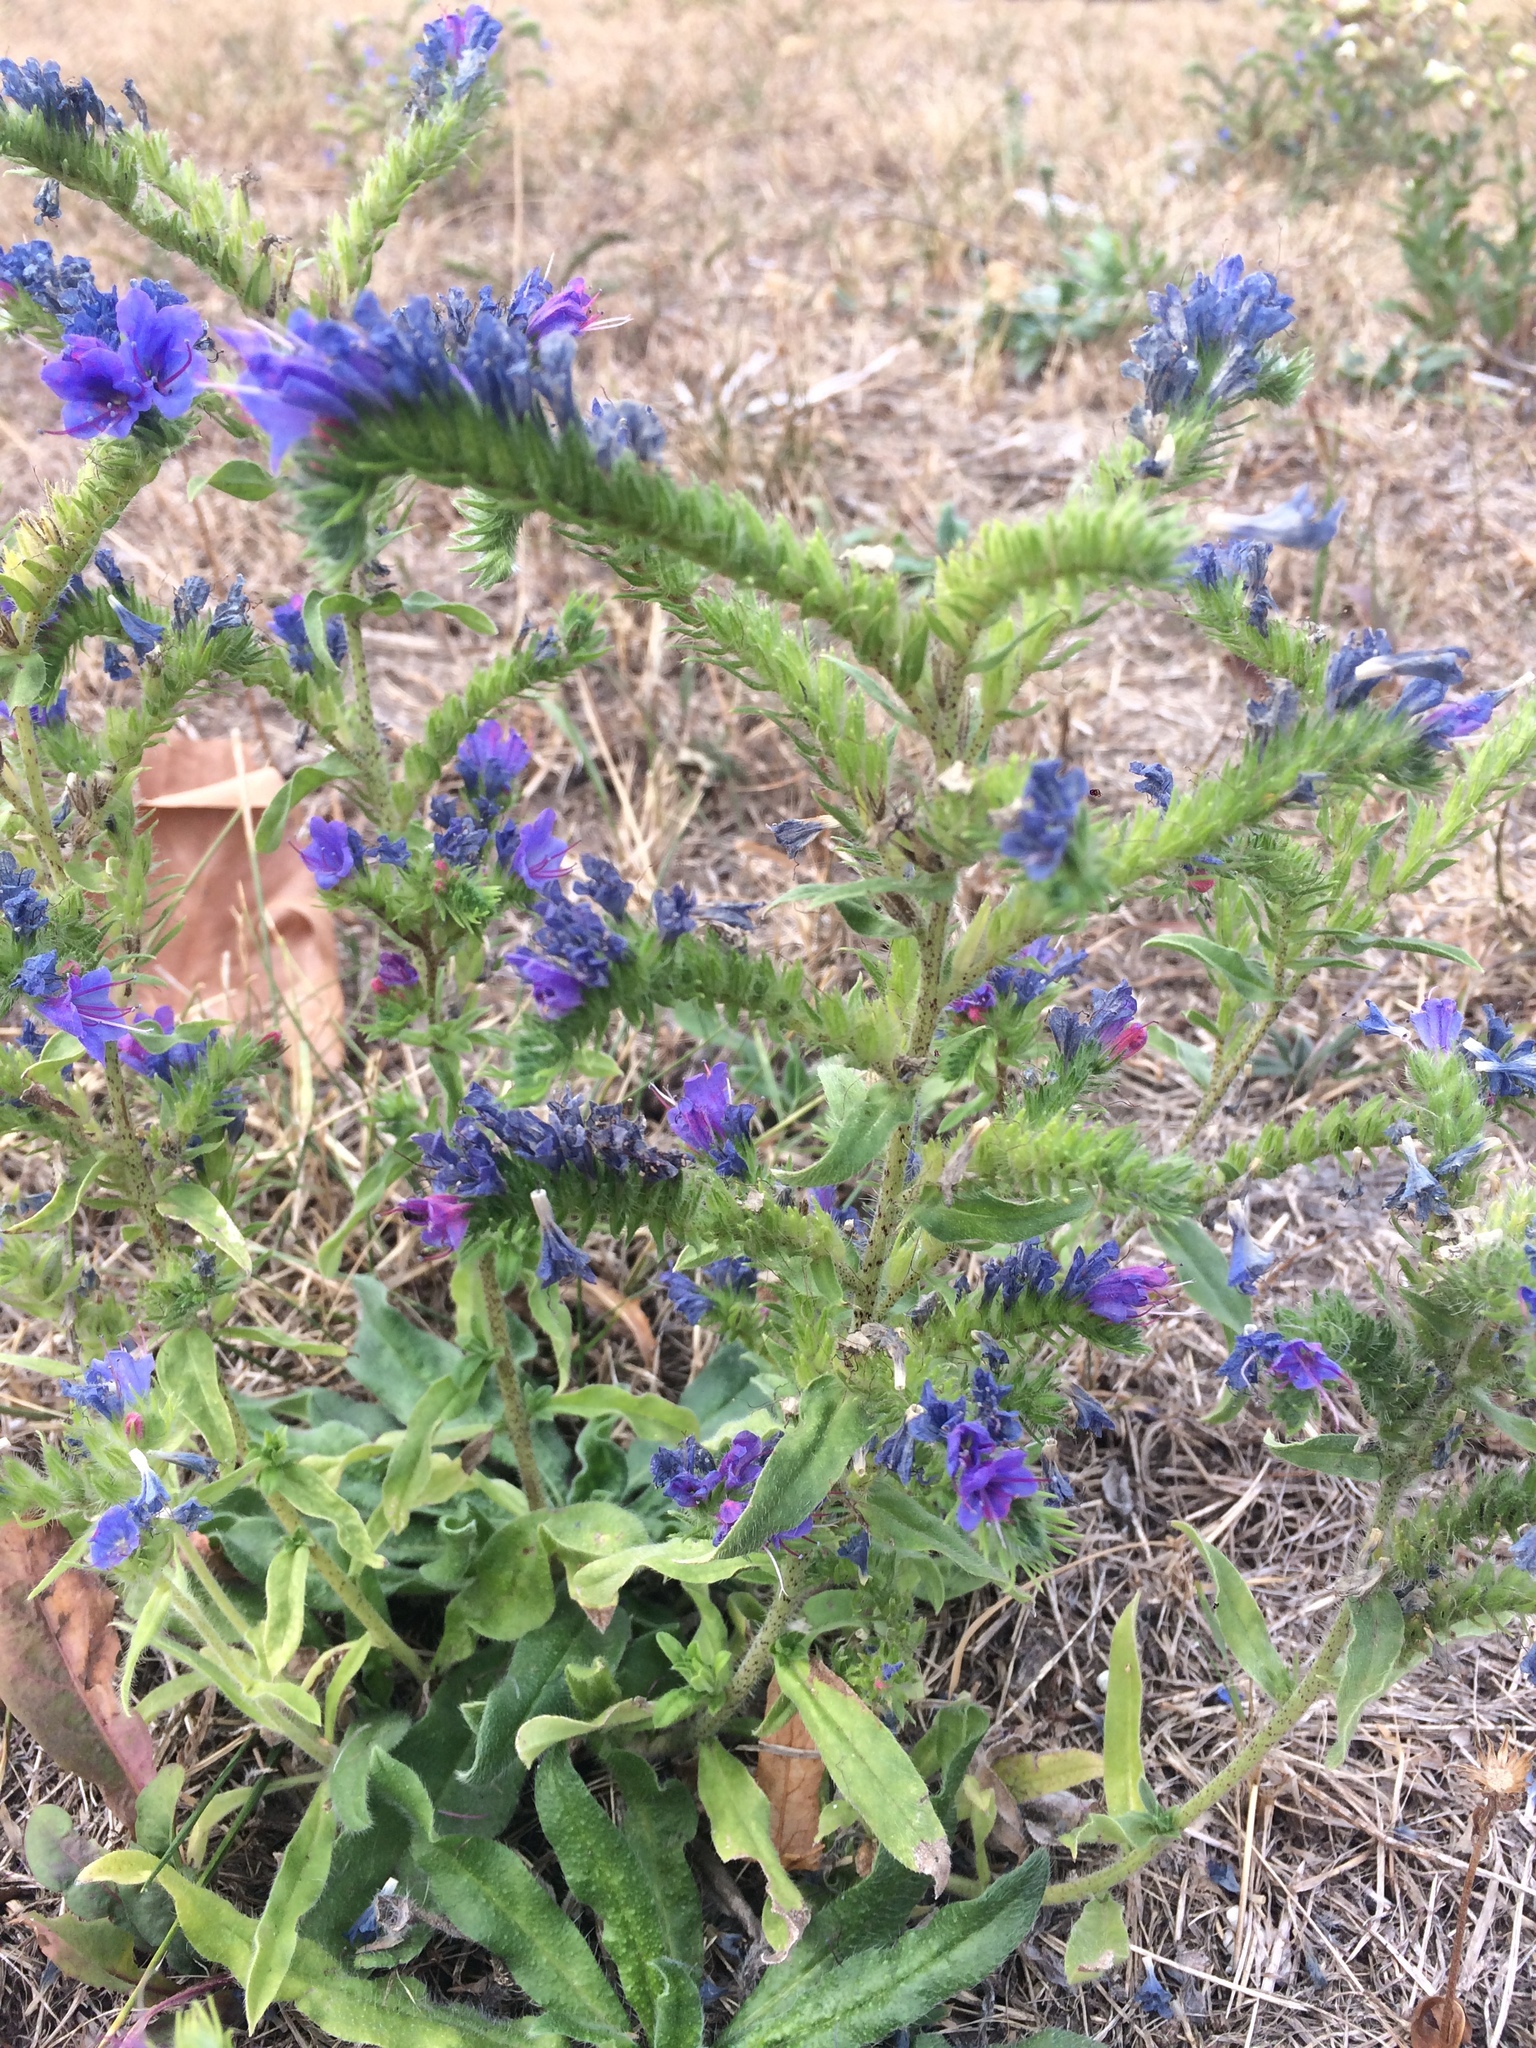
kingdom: Plantae
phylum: Tracheophyta
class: Magnoliopsida
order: Boraginales
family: Boraginaceae
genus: Echium
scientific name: Echium vulgare
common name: Common viper's bugloss
